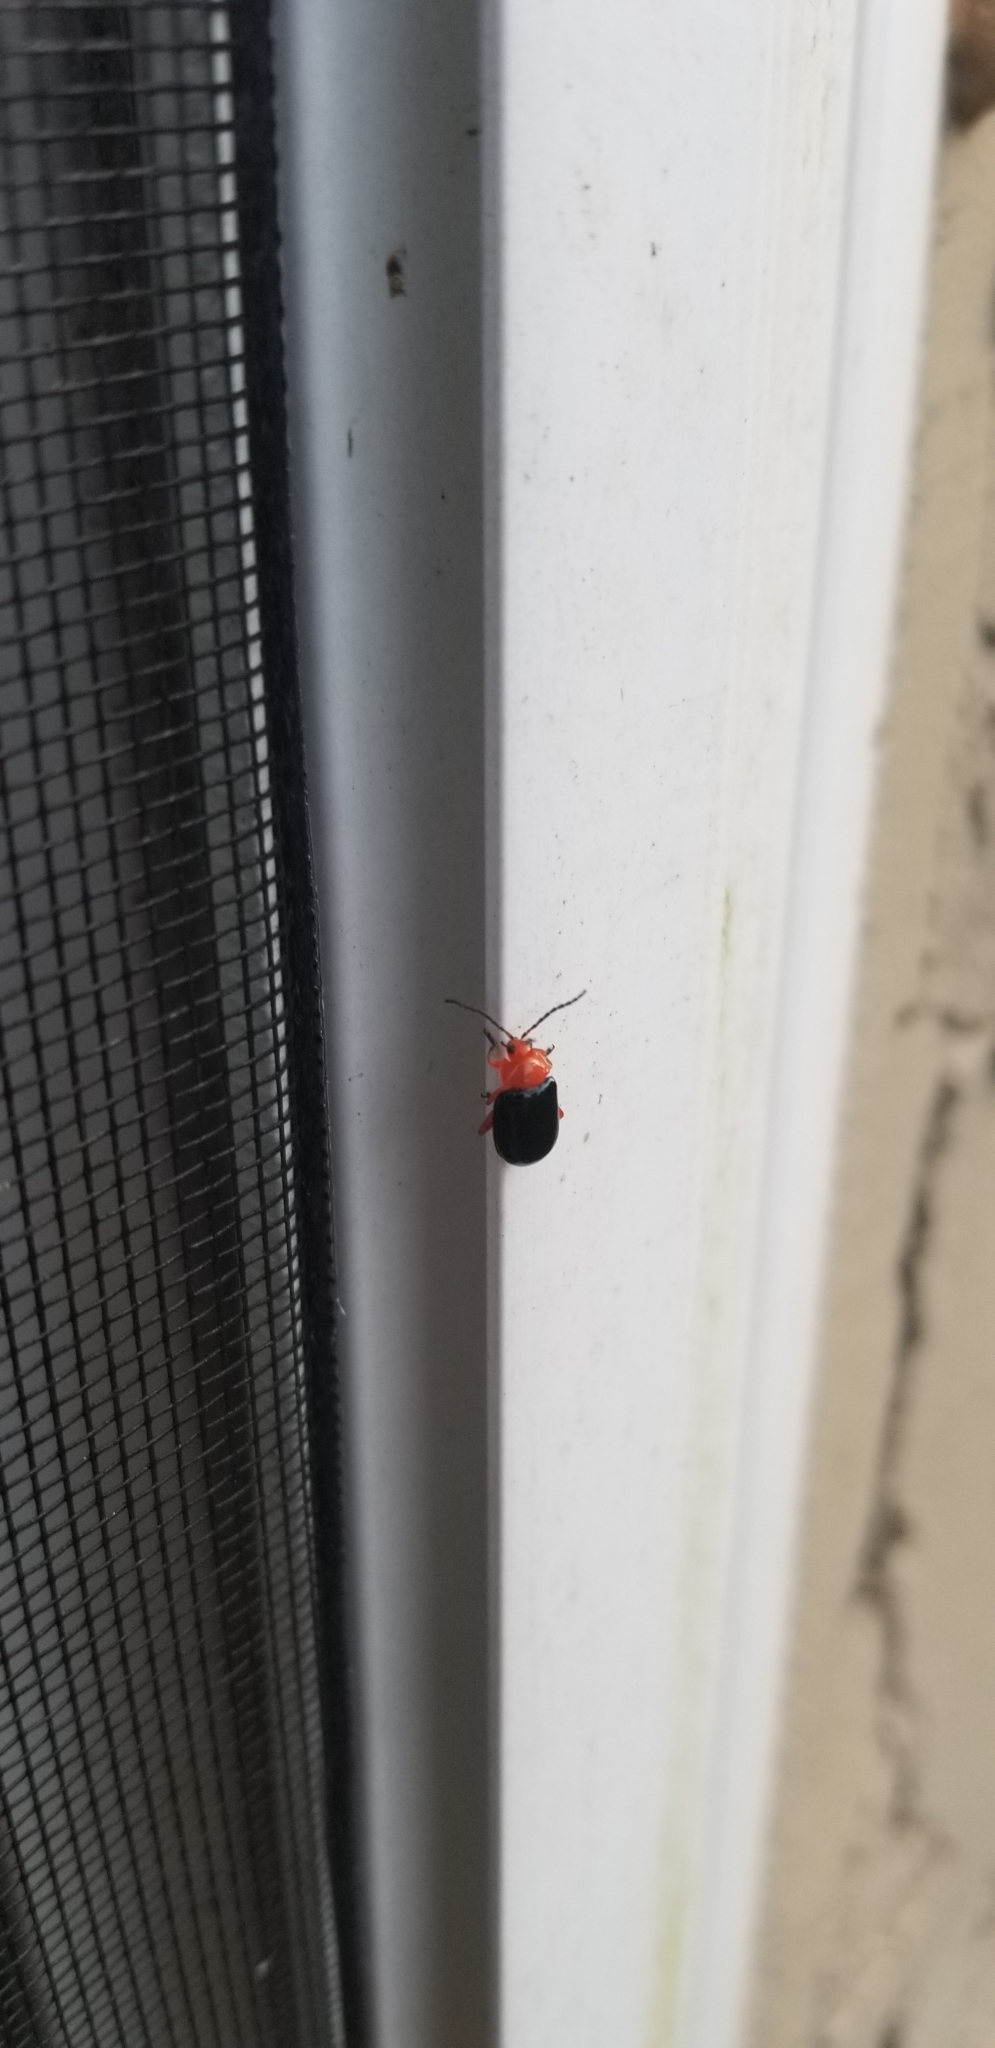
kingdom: Animalia
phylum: Arthropoda
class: Insecta
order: Coleoptera
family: Chrysomelidae
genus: Asphaera
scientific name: Asphaera lustrans
